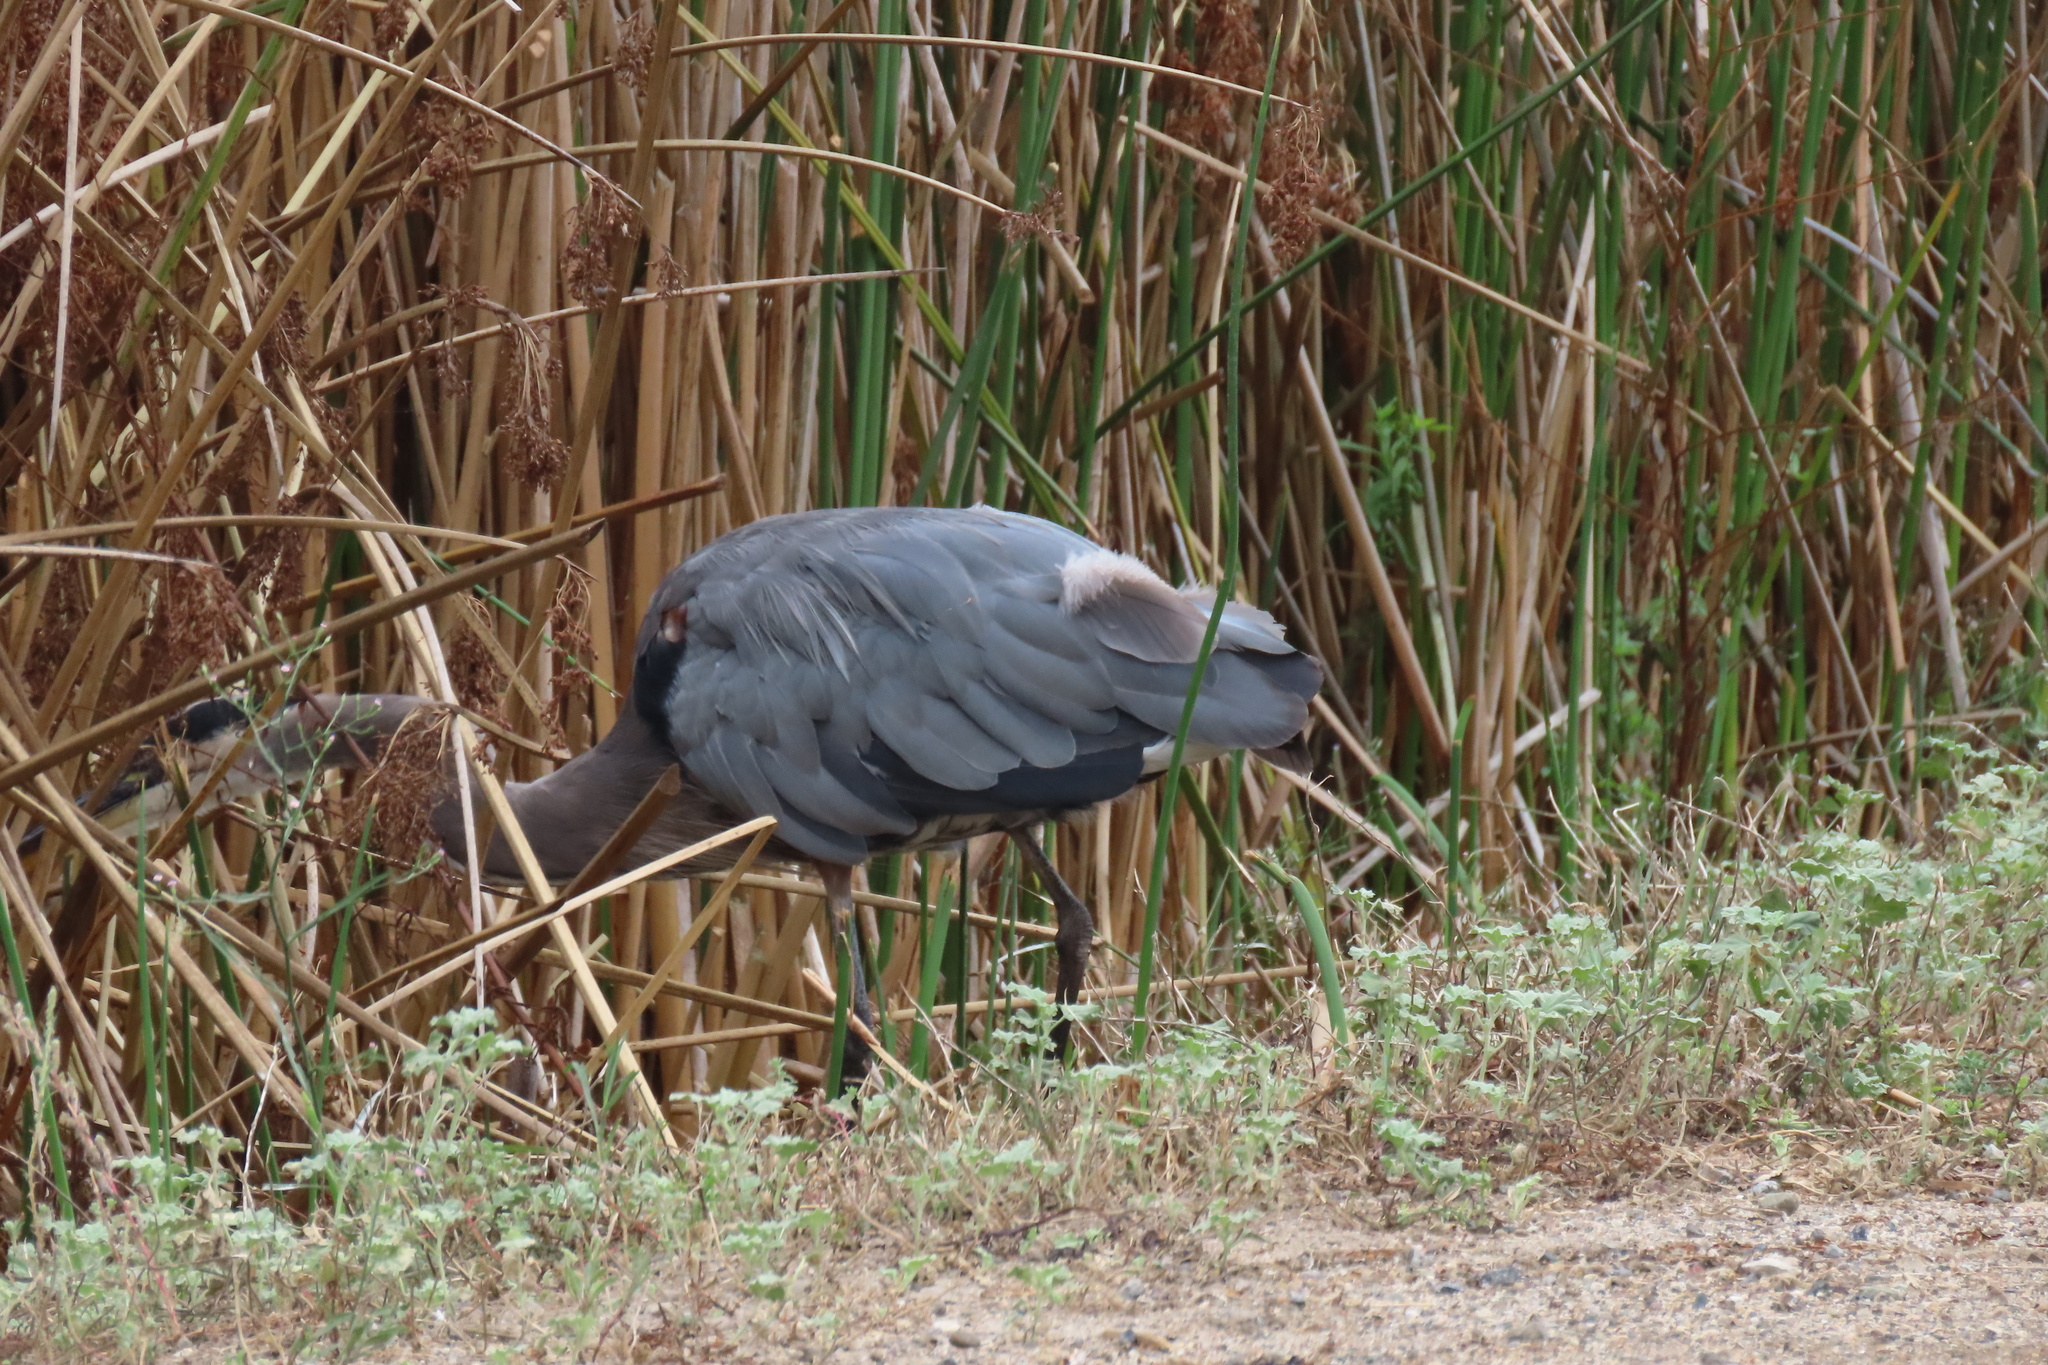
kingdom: Animalia
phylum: Chordata
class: Aves
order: Pelecaniformes
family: Ardeidae
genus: Ardea
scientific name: Ardea herodias
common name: Great blue heron
